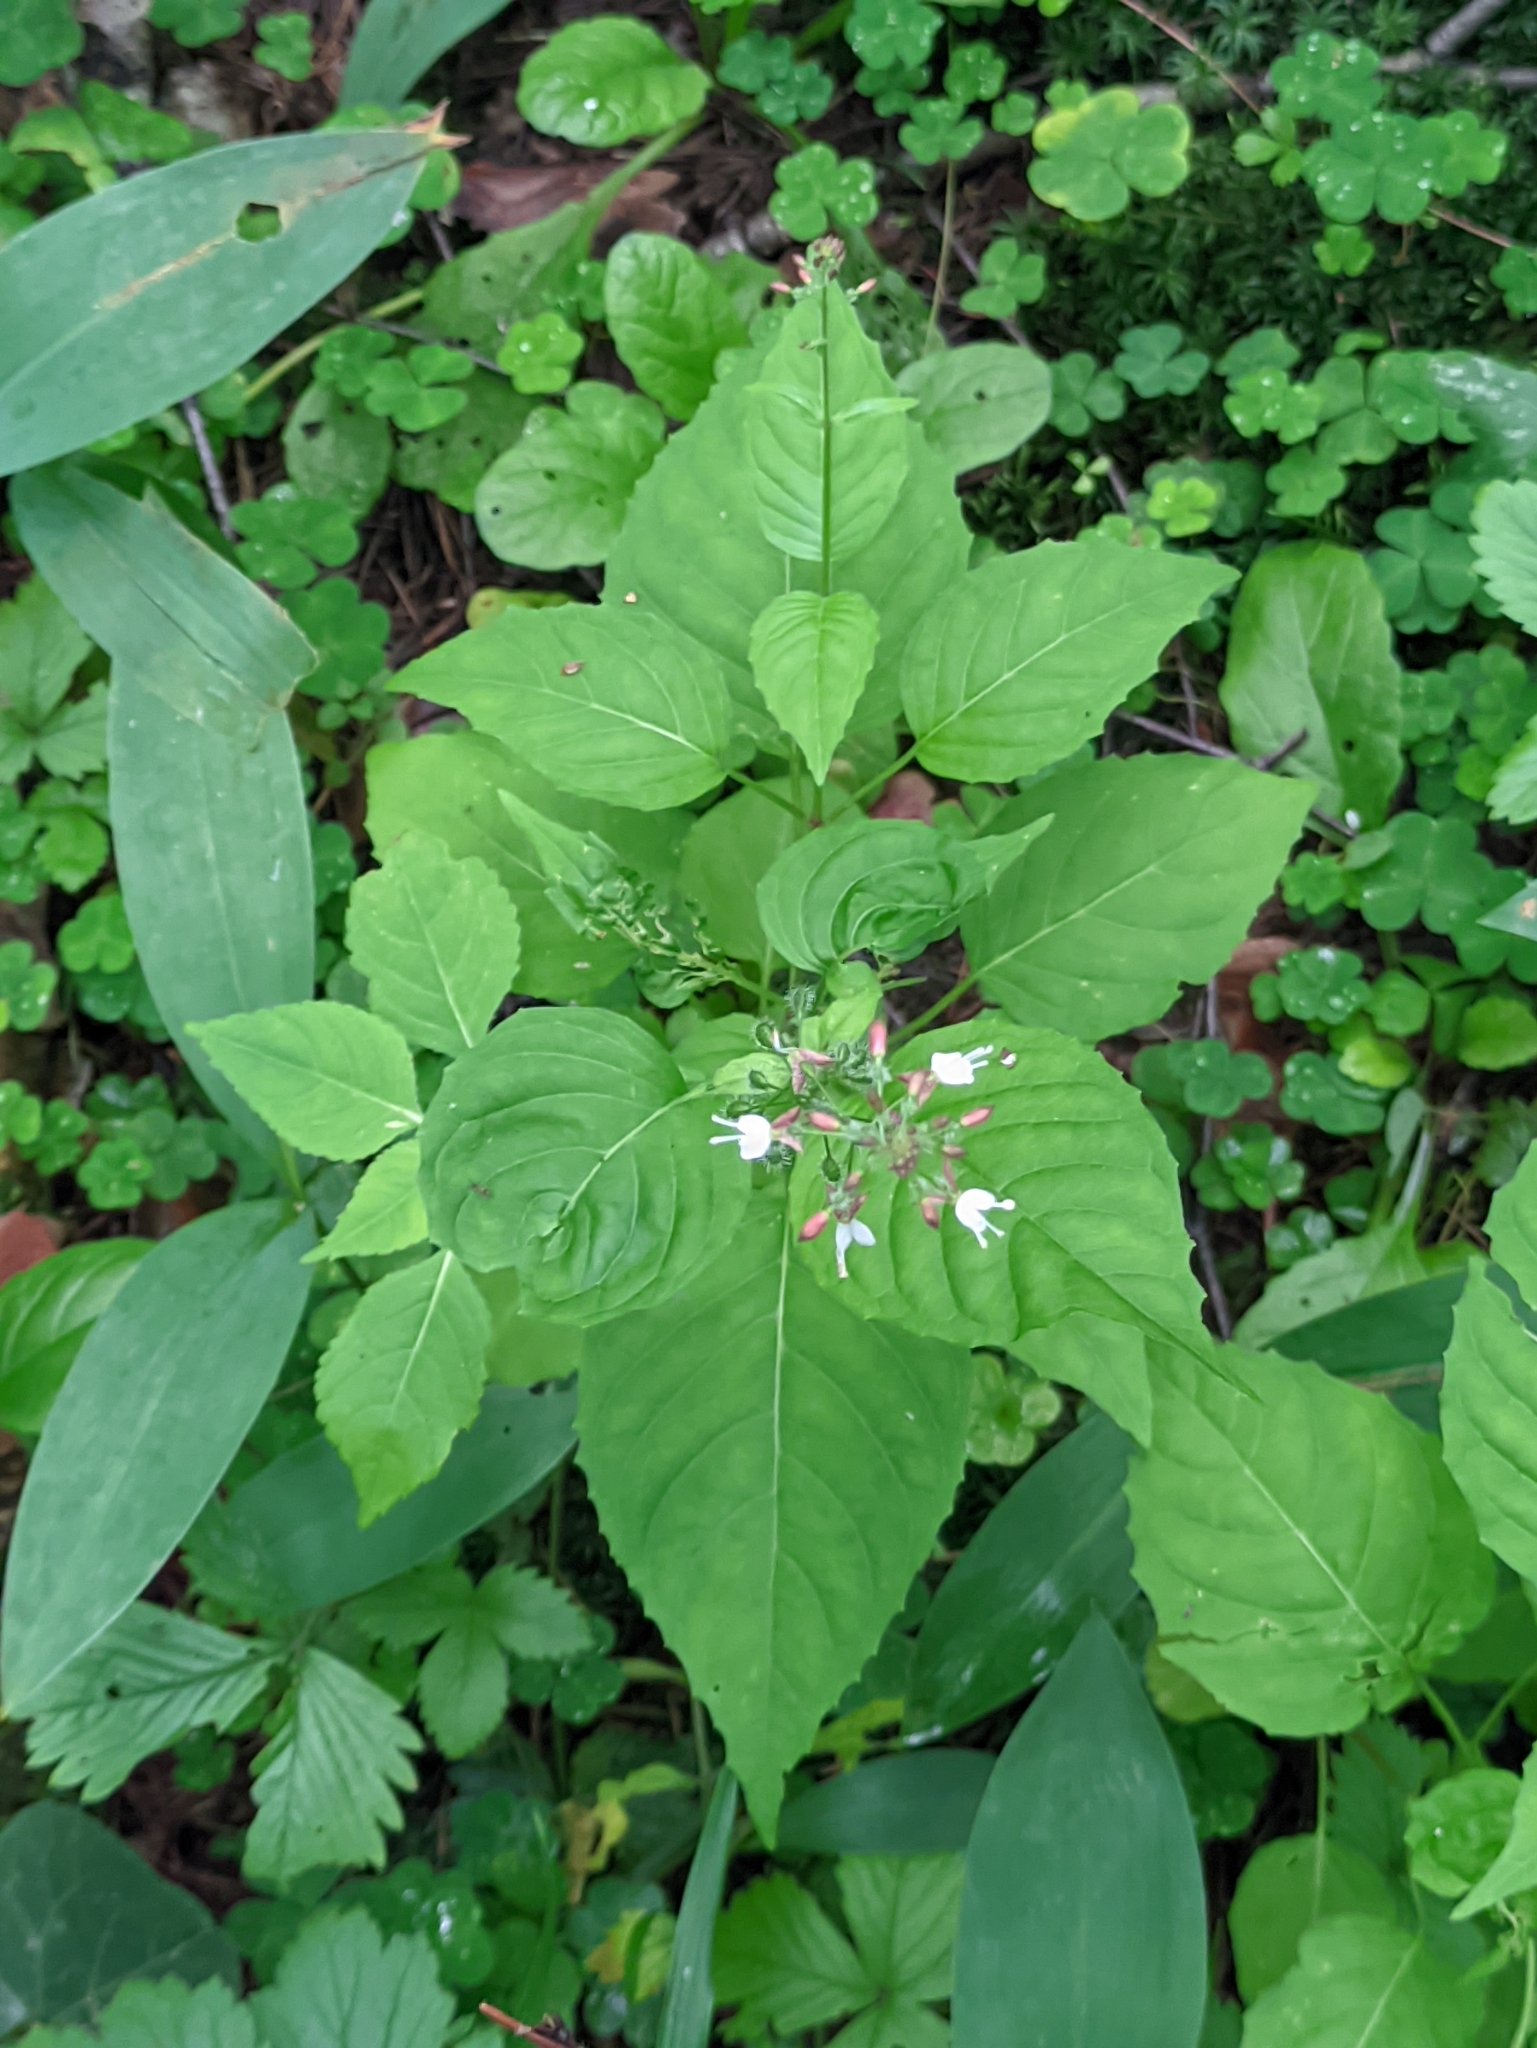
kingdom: Plantae
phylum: Tracheophyta
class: Magnoliopsida
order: Myrtales
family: Onagraceae
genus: Circaea
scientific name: Circaea lutetiana
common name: Enchanter's-nightshade
